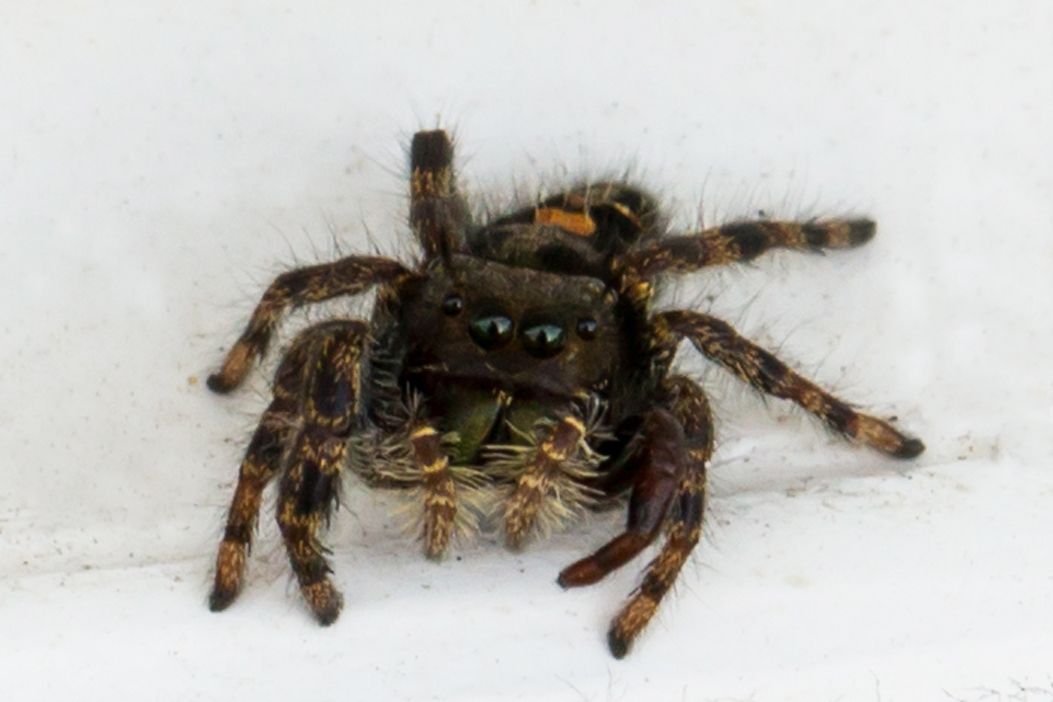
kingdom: Animalia
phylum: Arthropoda
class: Arachnida
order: Araneae
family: Salticidae
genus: Phidippus
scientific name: Phidippus audax
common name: Bold jumper
